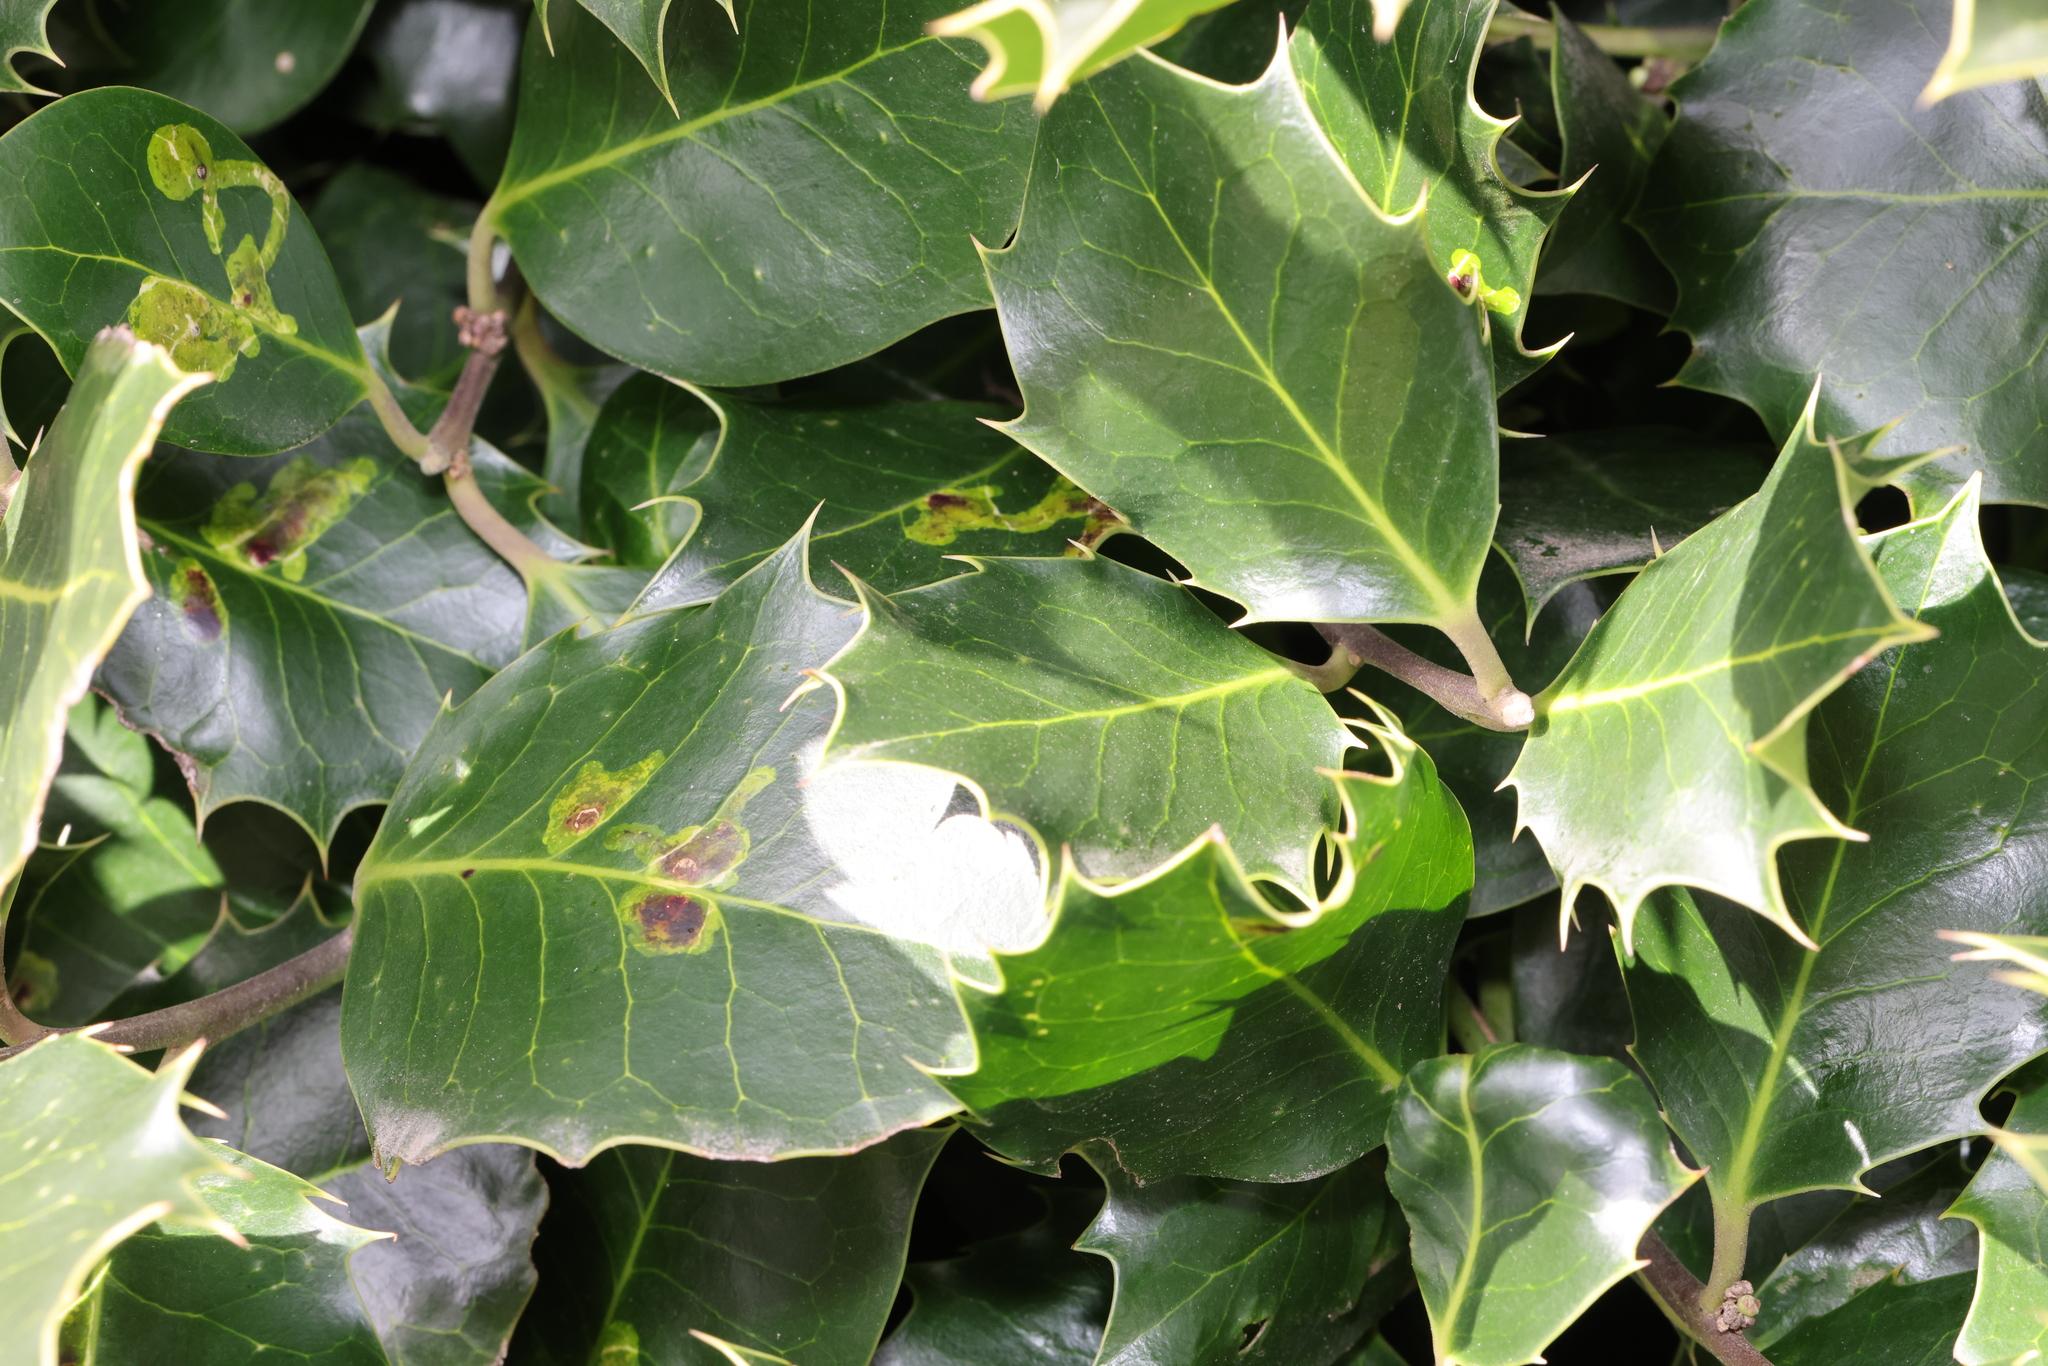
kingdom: Plantae
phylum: Tracheophyta
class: Magnoliopsida
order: Aquifoliales
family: Aquifoliaceae
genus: Ilex
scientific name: Ilex aquifolium
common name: English holly
